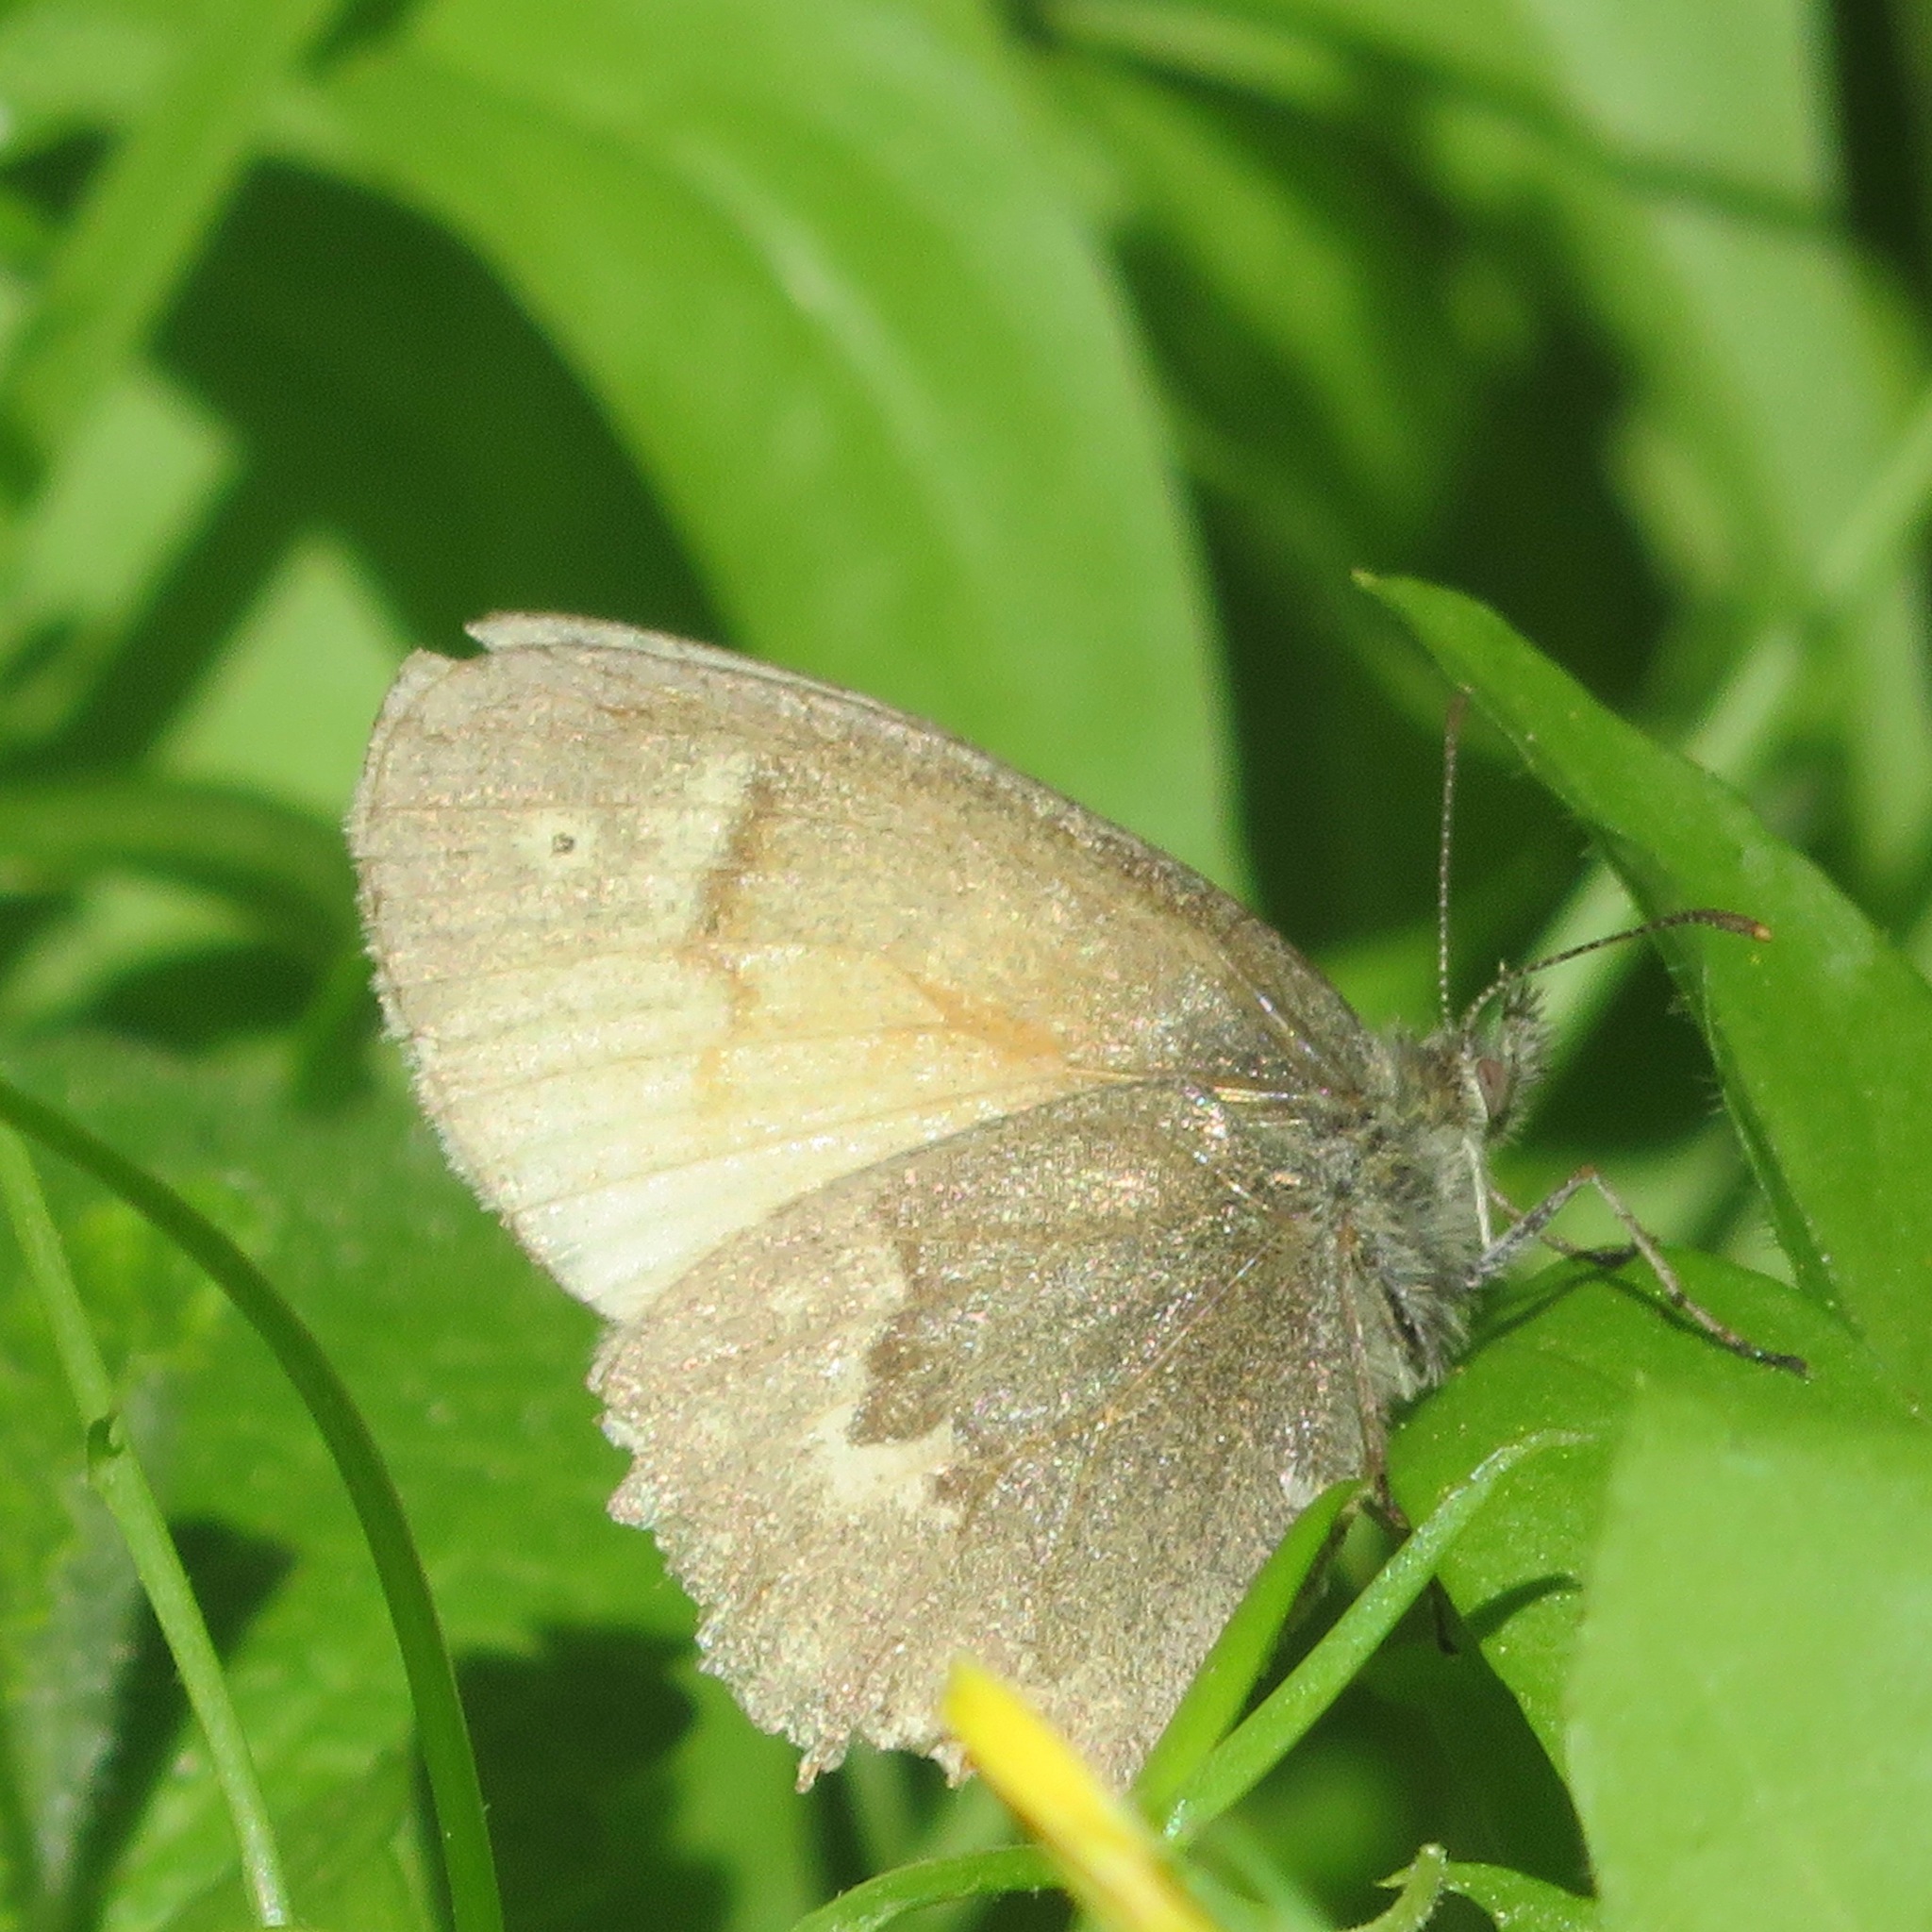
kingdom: Animalia
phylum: Arthropoda
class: Insecta
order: Lepidoptera
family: Nymphalidae
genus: Coenonympha
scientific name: Coenonympha california
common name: Common ringlet
